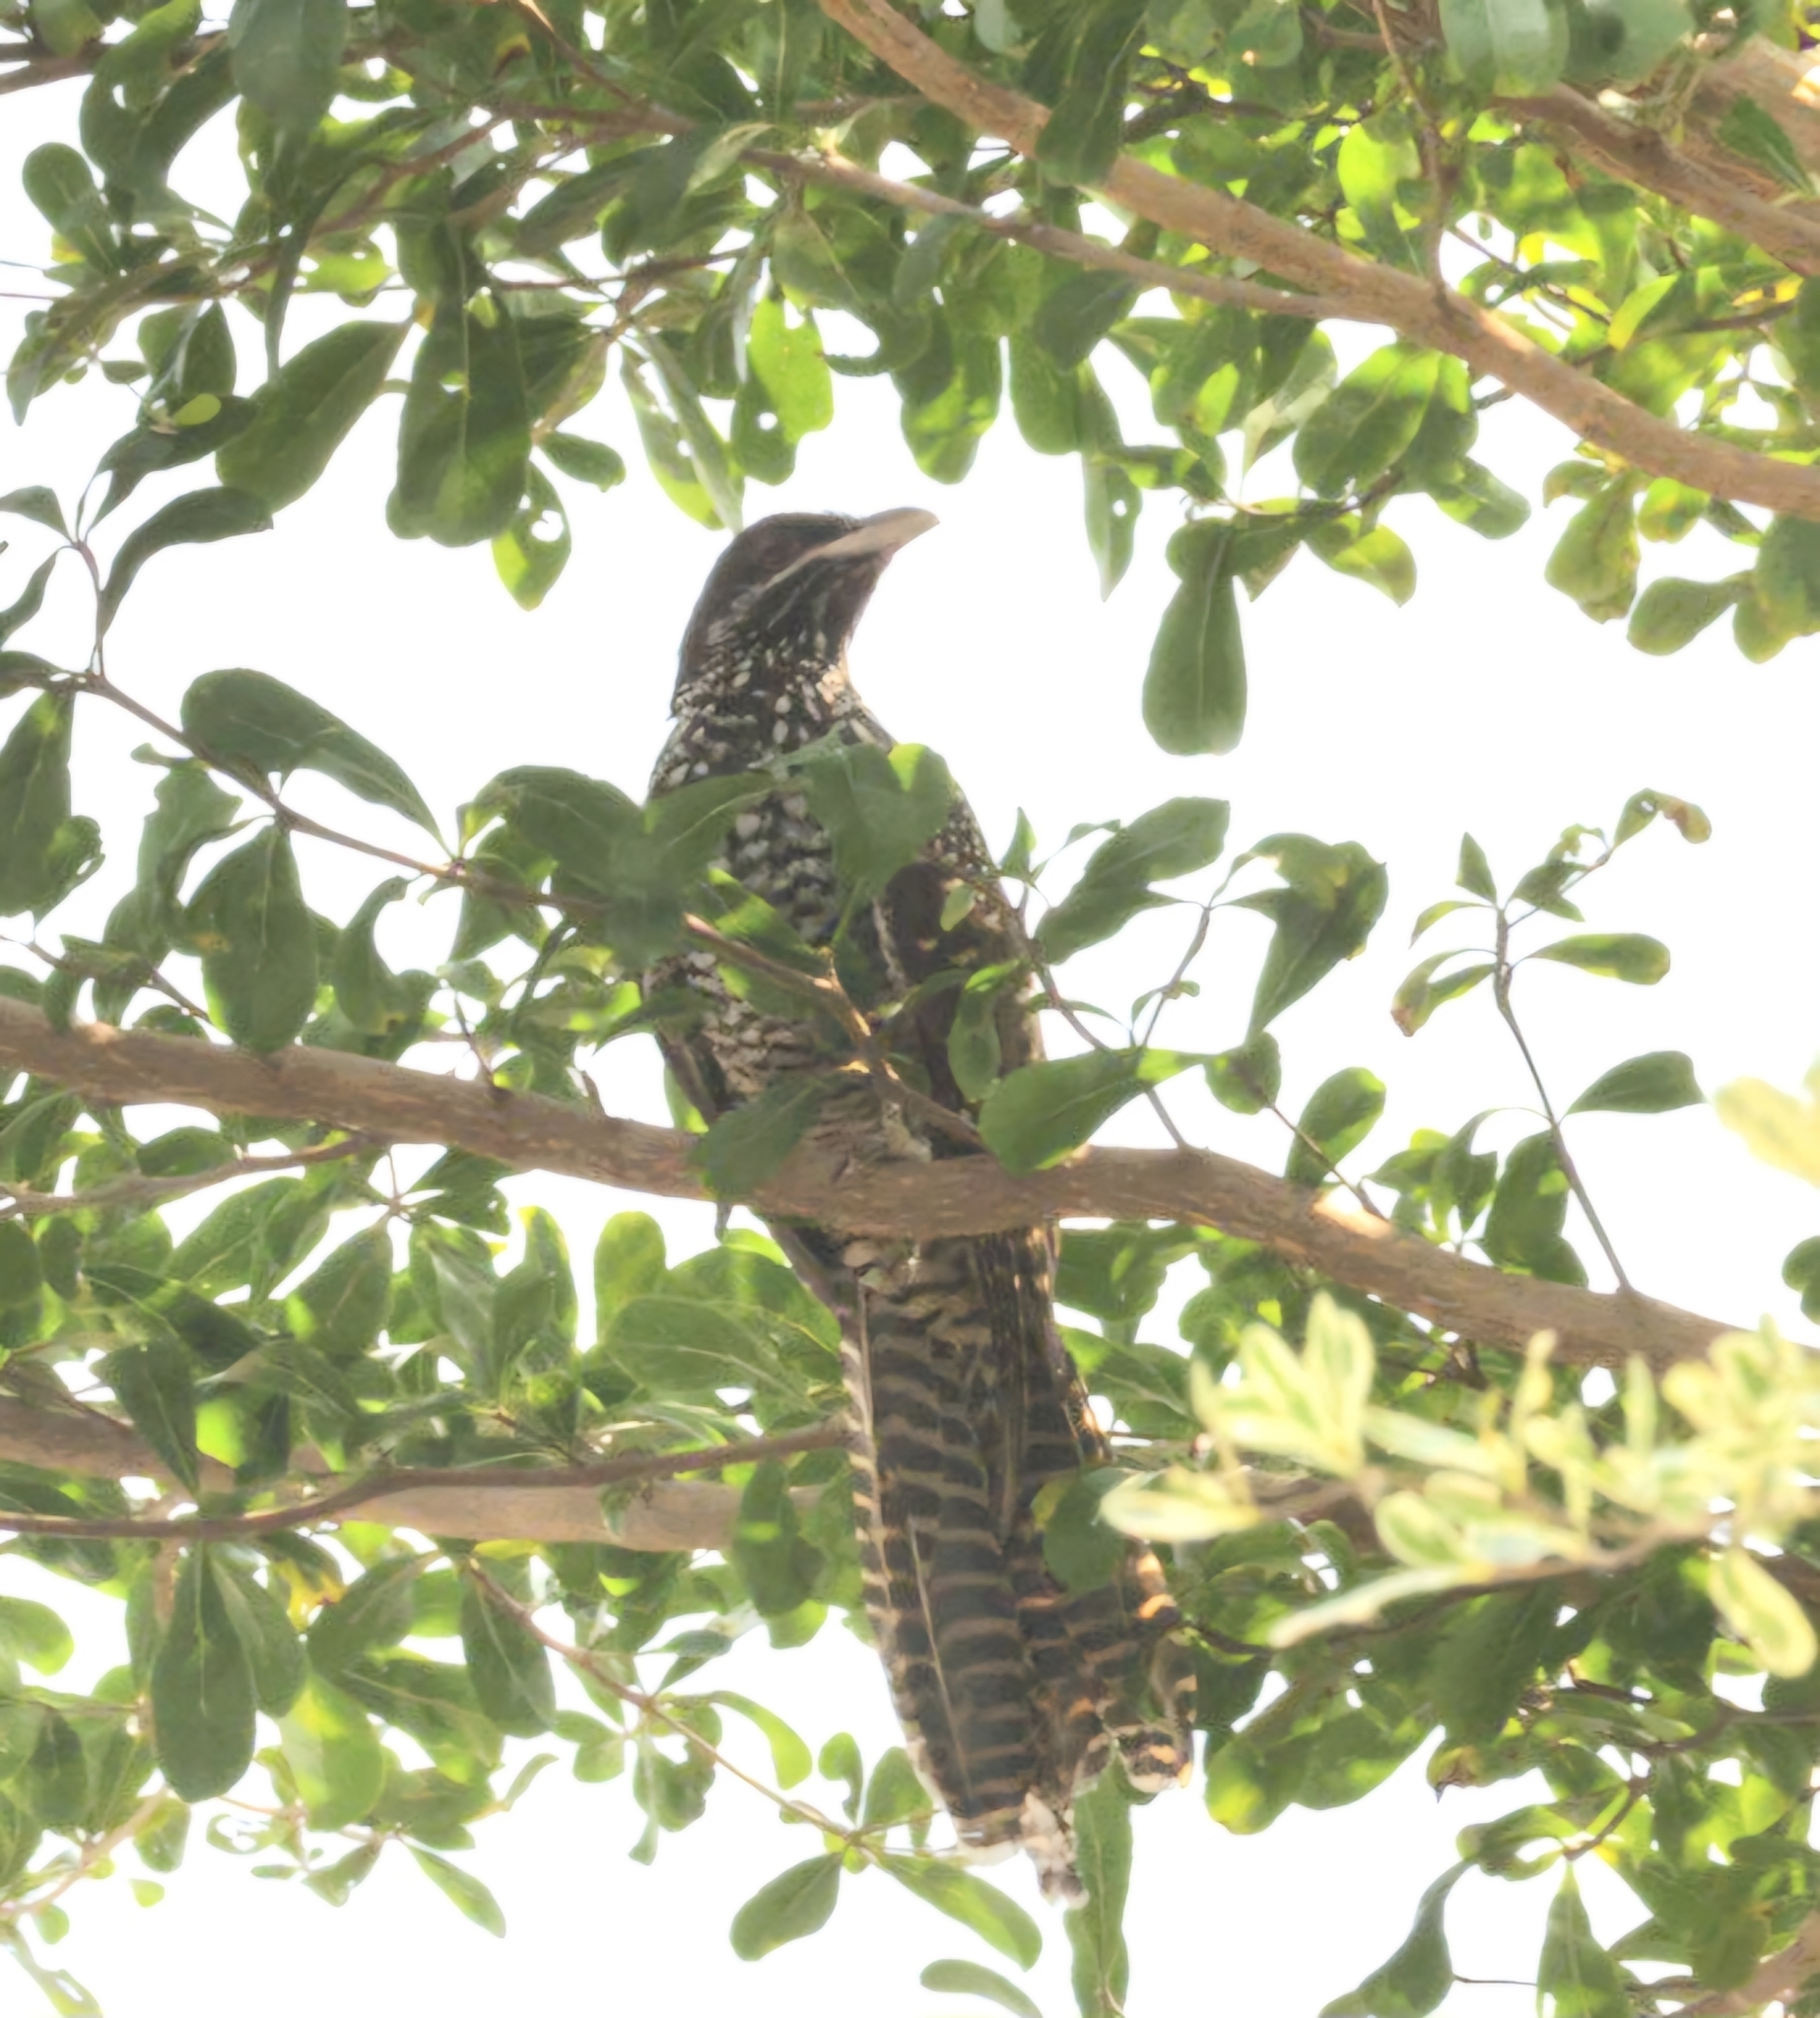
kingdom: Animalia
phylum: Chordata
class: Aves
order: Cuculiformes
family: Cuculidae
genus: Eudynamys
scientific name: Eudynamys scolopaceus
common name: Asian koel
